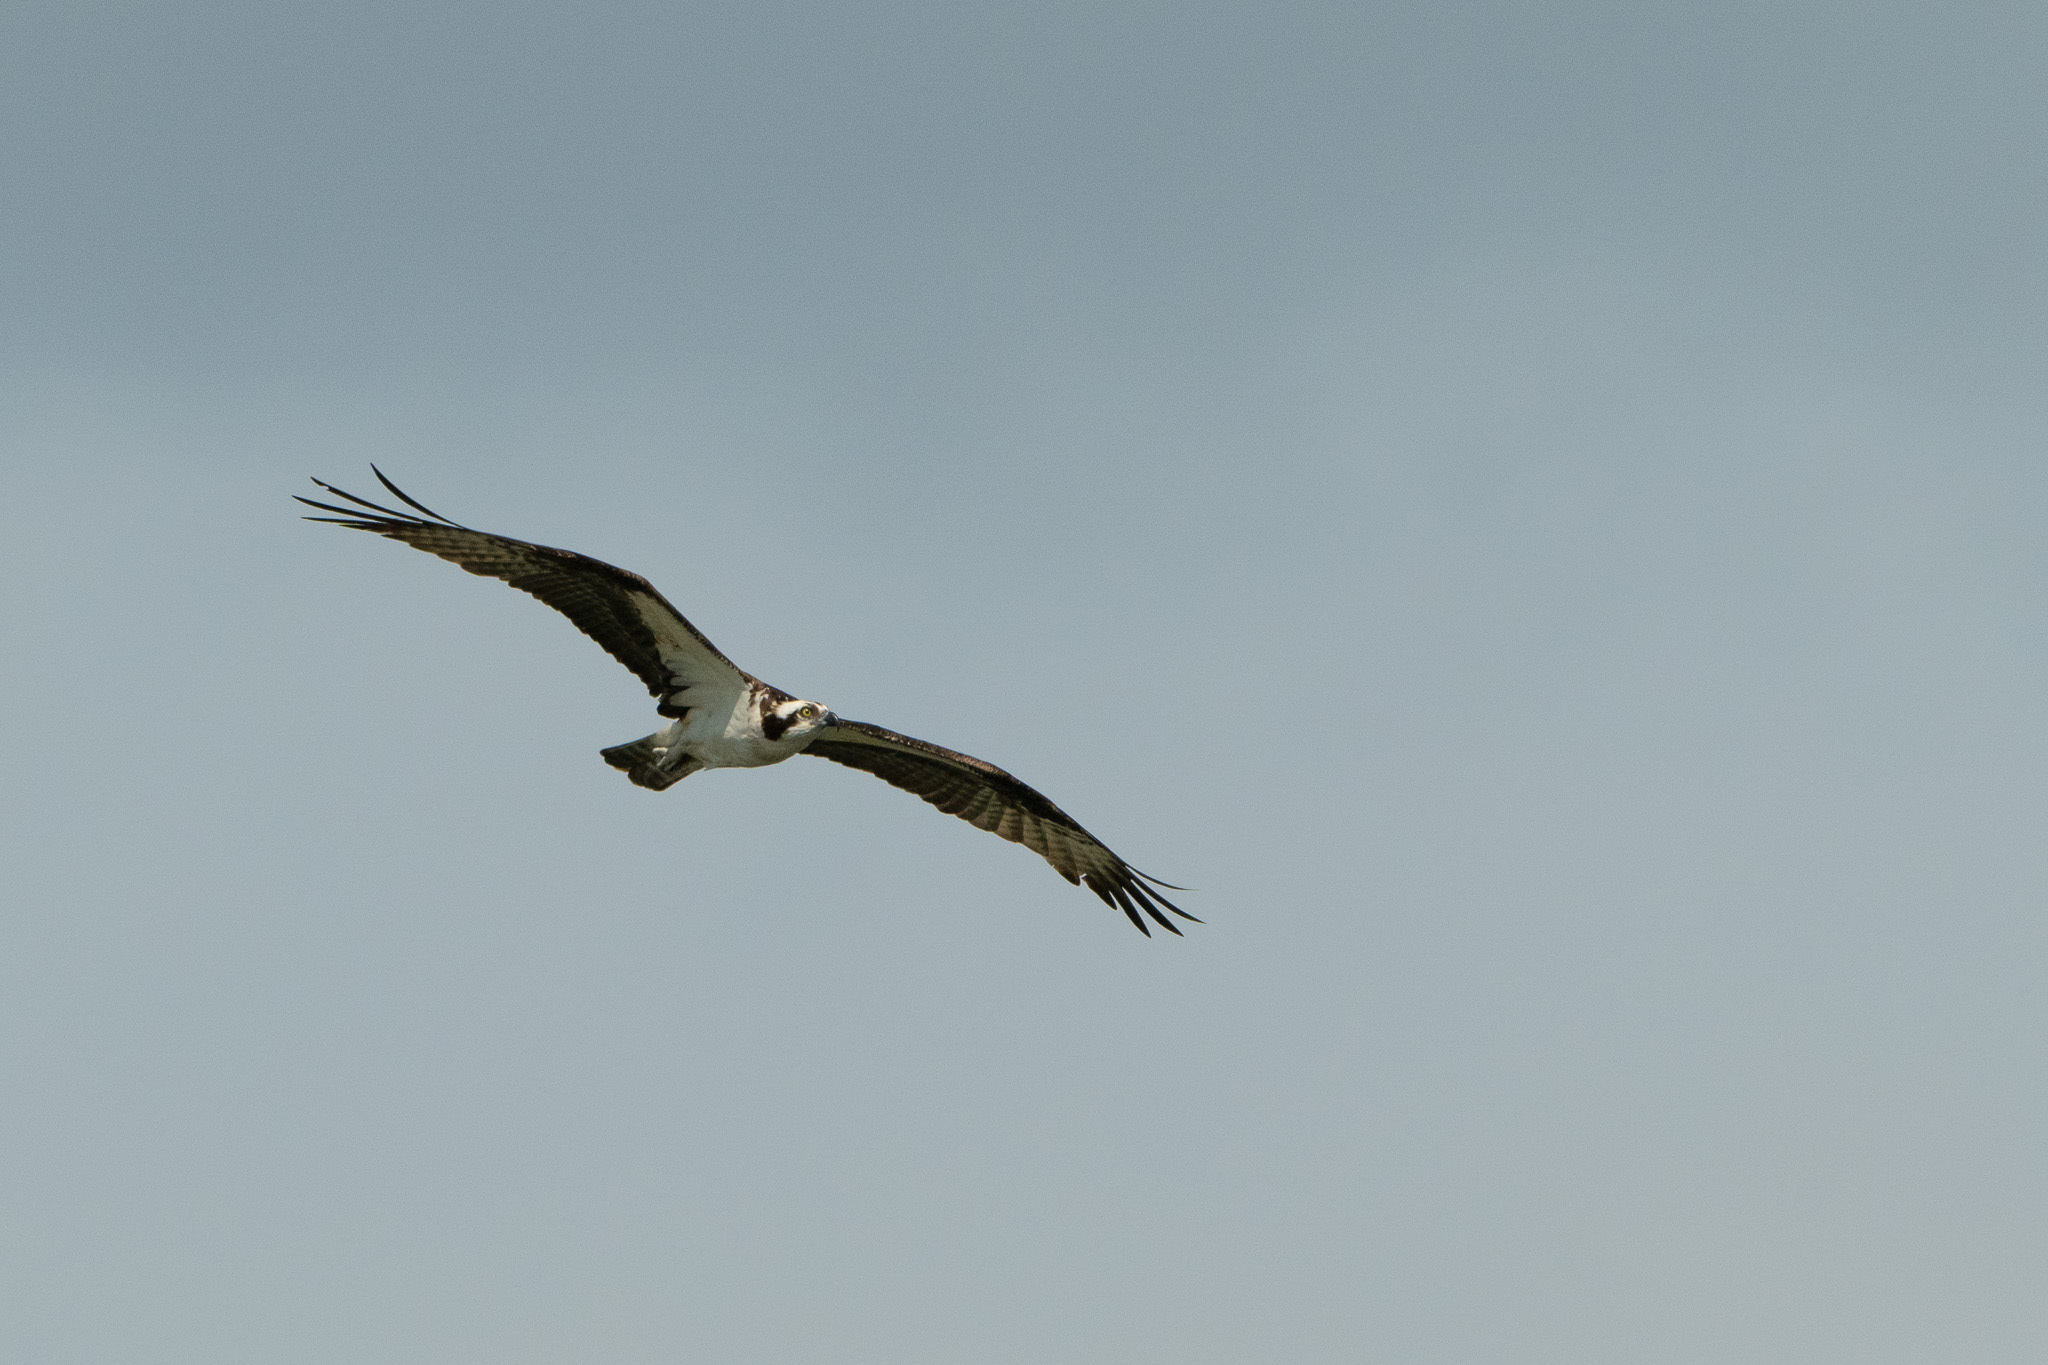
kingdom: Animalia
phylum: Chordata
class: Aves
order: Accipitriformes
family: Pandionidae
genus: Pandion
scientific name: Pandion haliaetus
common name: Osprey
